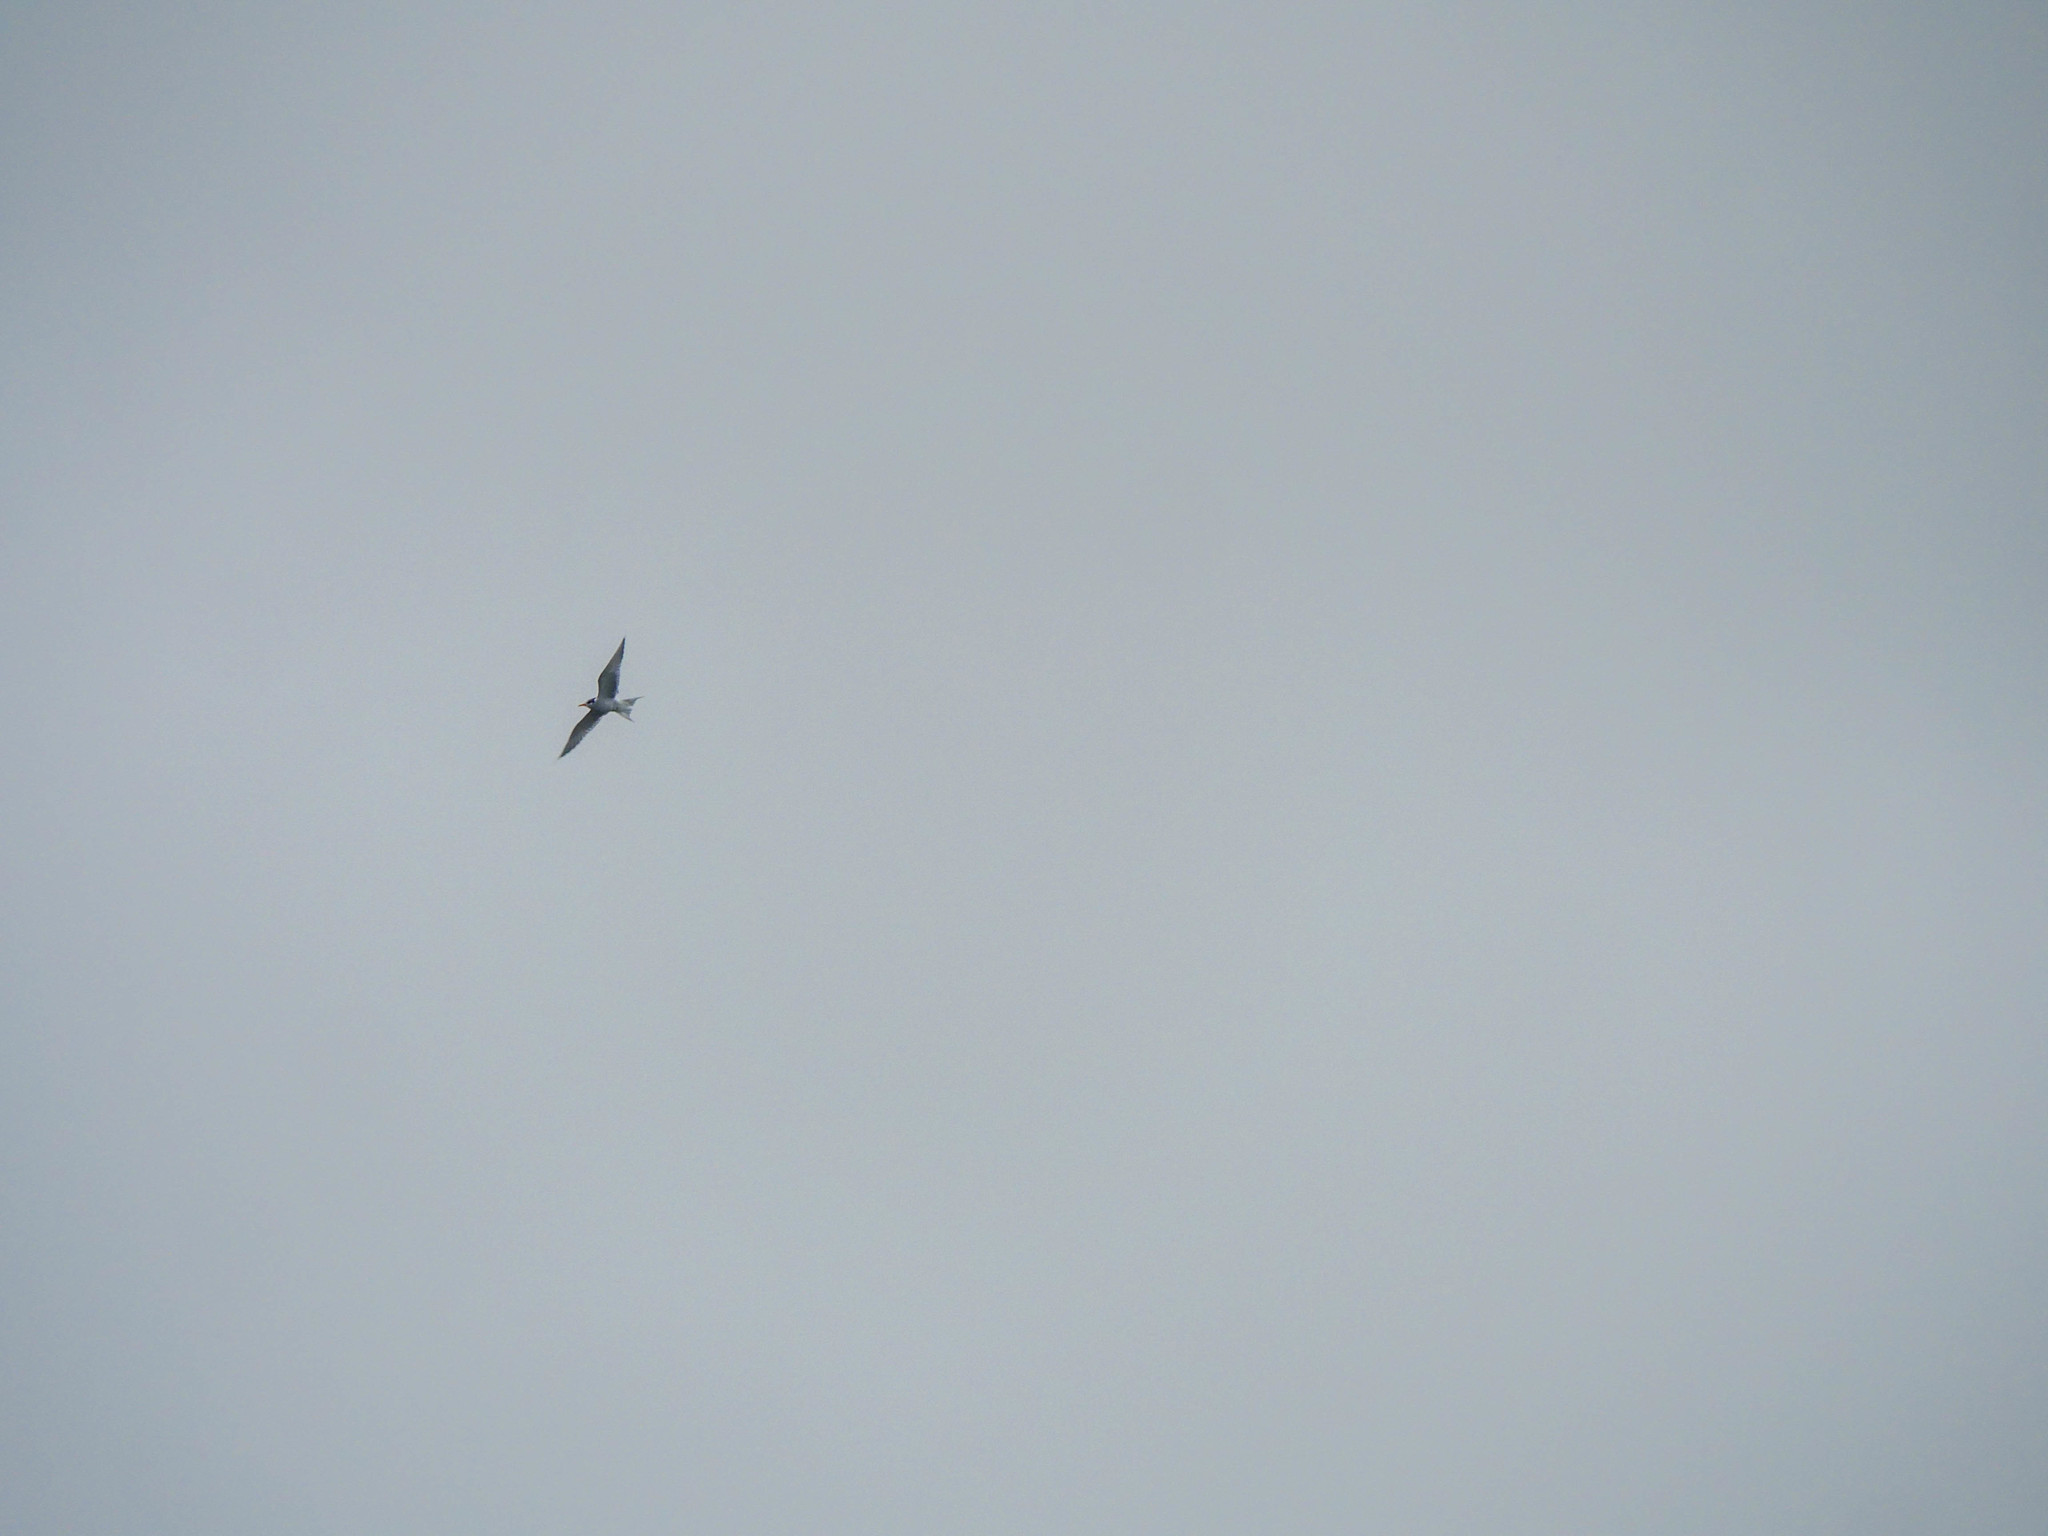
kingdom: Animalia
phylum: Chordata
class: Aves
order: Charadriiformes
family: Laridae
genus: Chlidonias
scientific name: Chlidonias albostriatus
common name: Black-fronted tern
